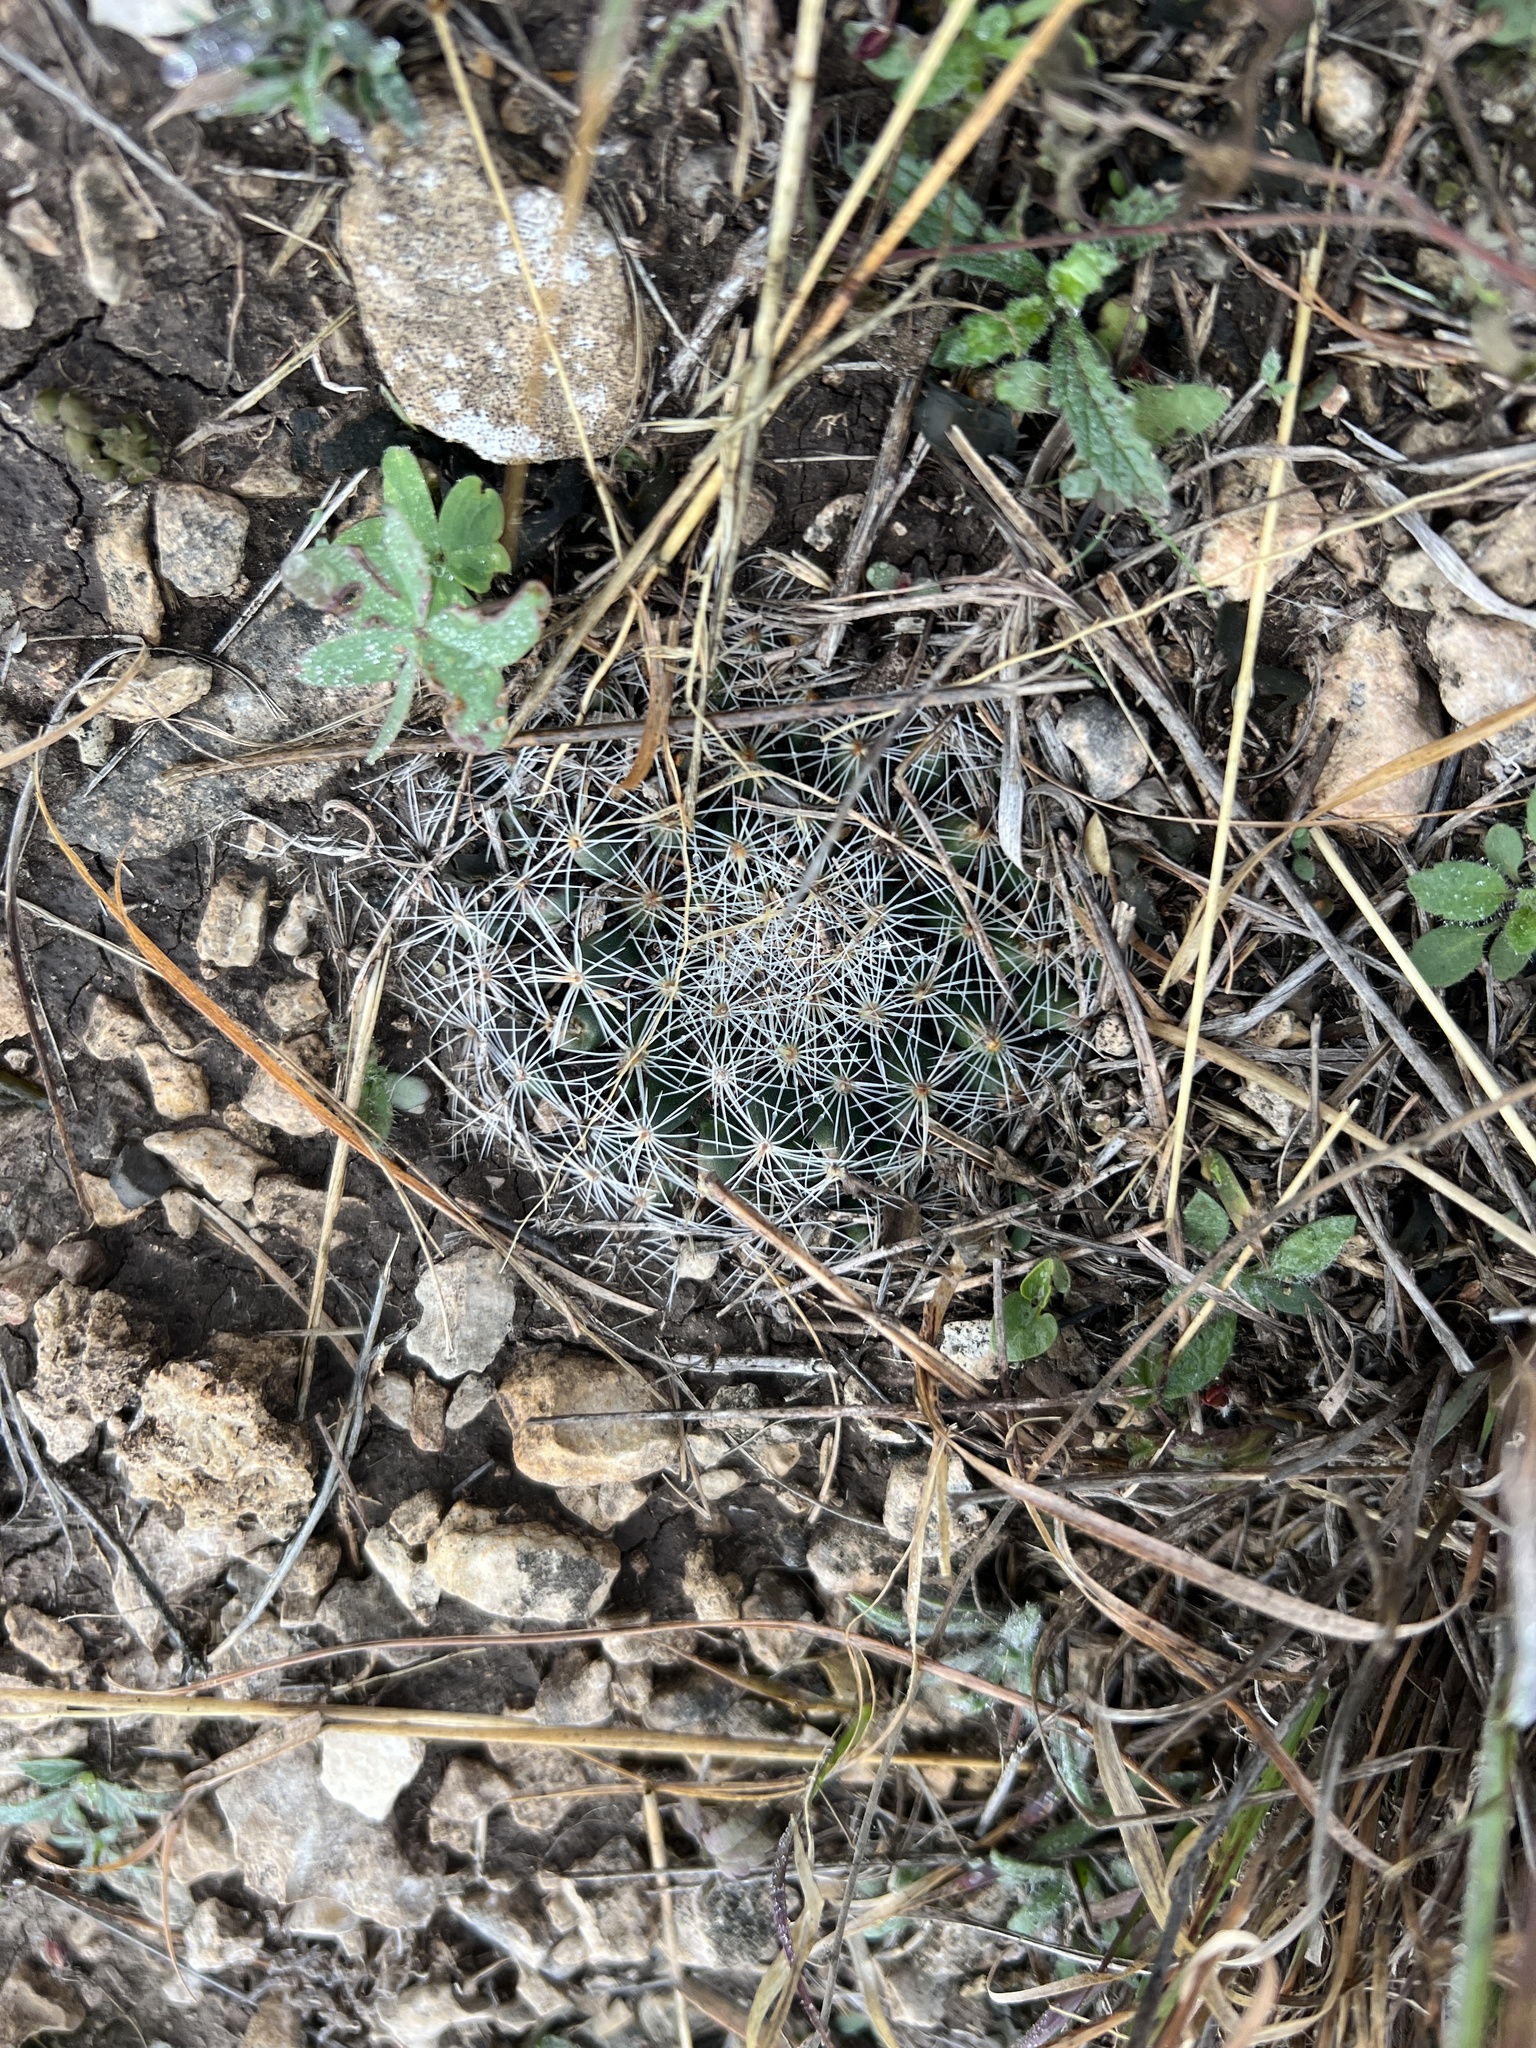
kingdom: Plantae
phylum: Tracheophyta
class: Magnoliopsida
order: Caryophyllales
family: Cactaceae
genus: Mammillaria
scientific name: Mammillaria heyderi
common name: Little nipple cactus
